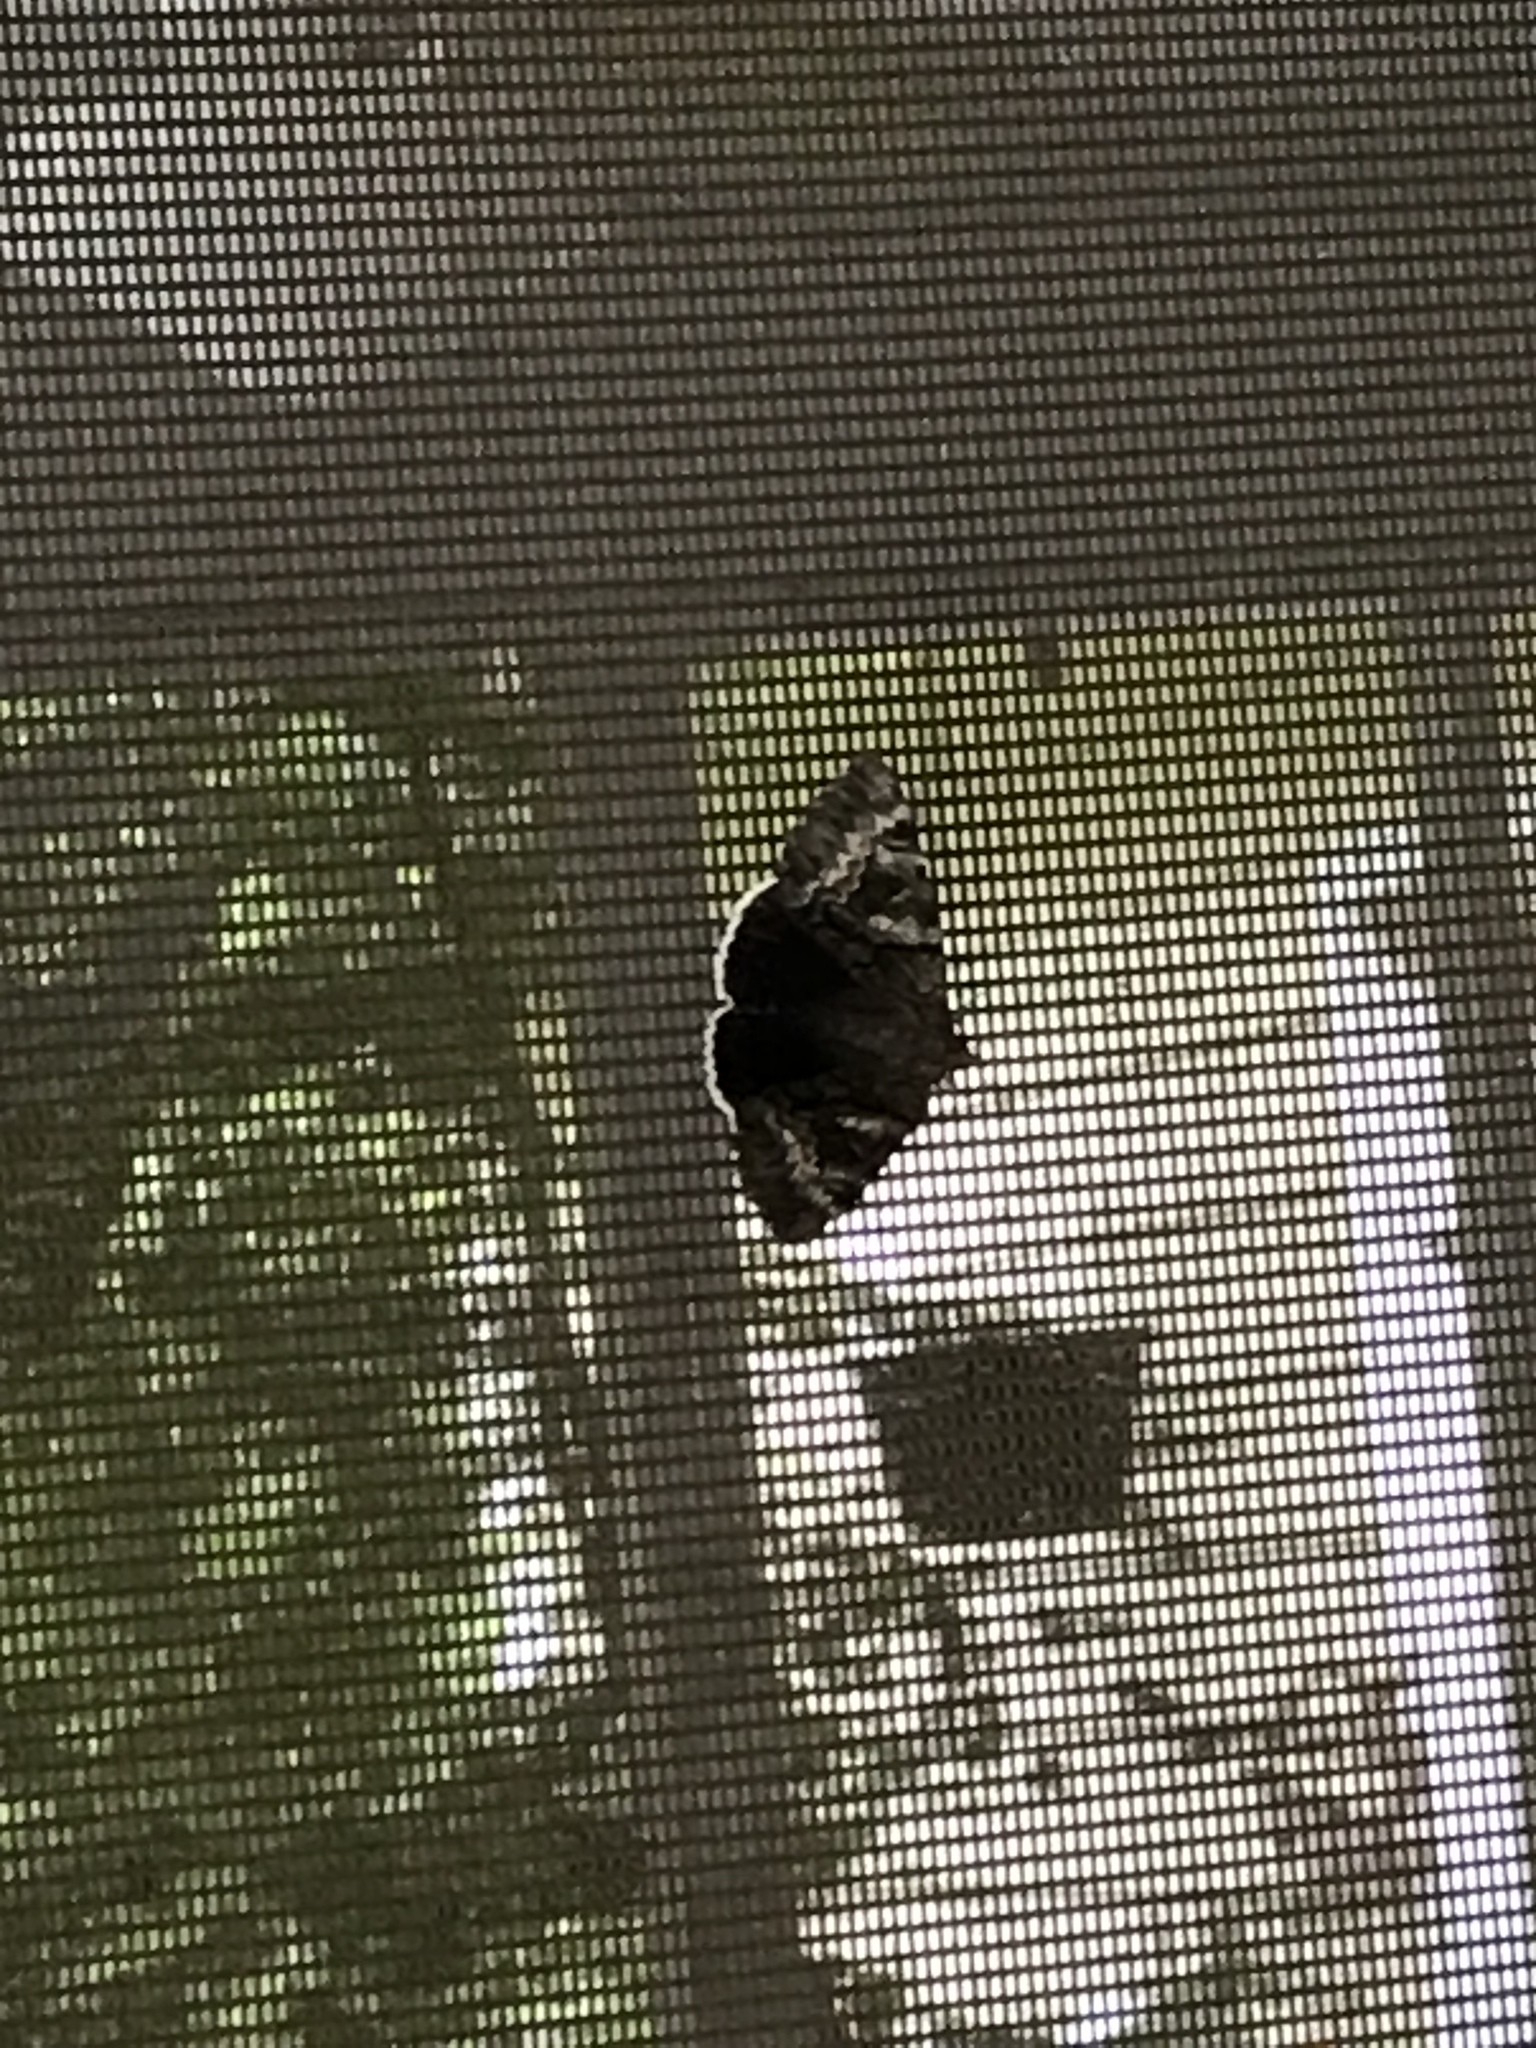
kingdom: Animalia
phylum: Arthropoda
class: Insecta
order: Lepidoptera
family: Erebidae
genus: Catocala
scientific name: Catocala epione
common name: Epione underwing
